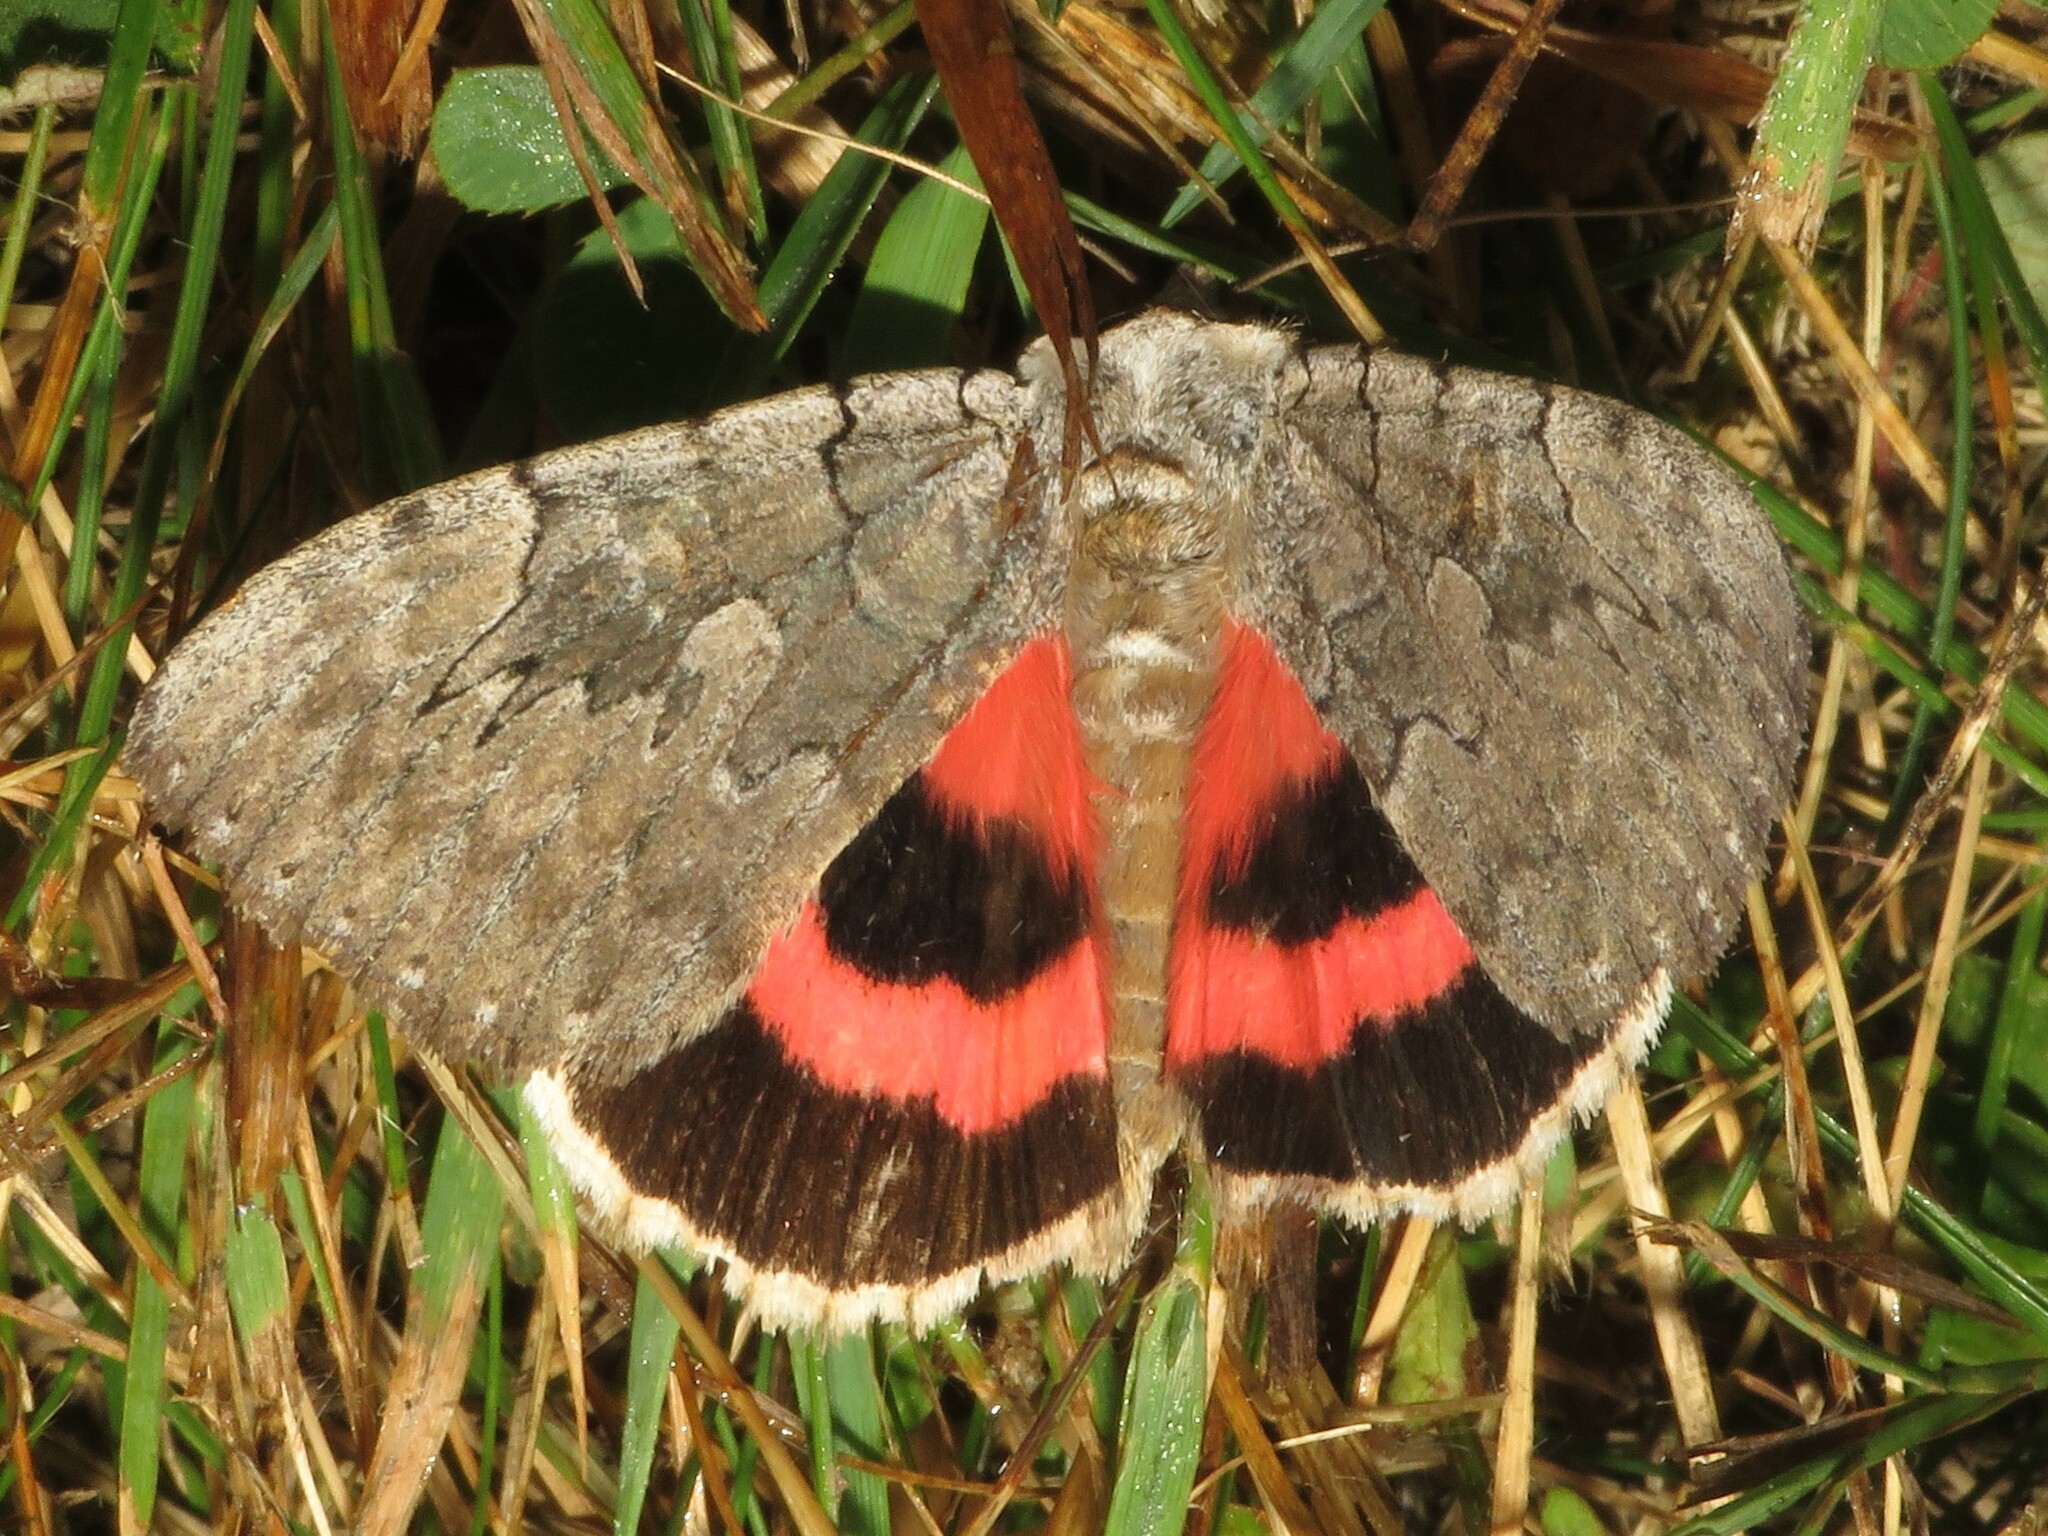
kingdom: Animalia
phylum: Arthropoda
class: Insecta
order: Lepidoptera
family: Erebidae
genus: Catocala
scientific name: Catocala concumbens
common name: Pink underwing
